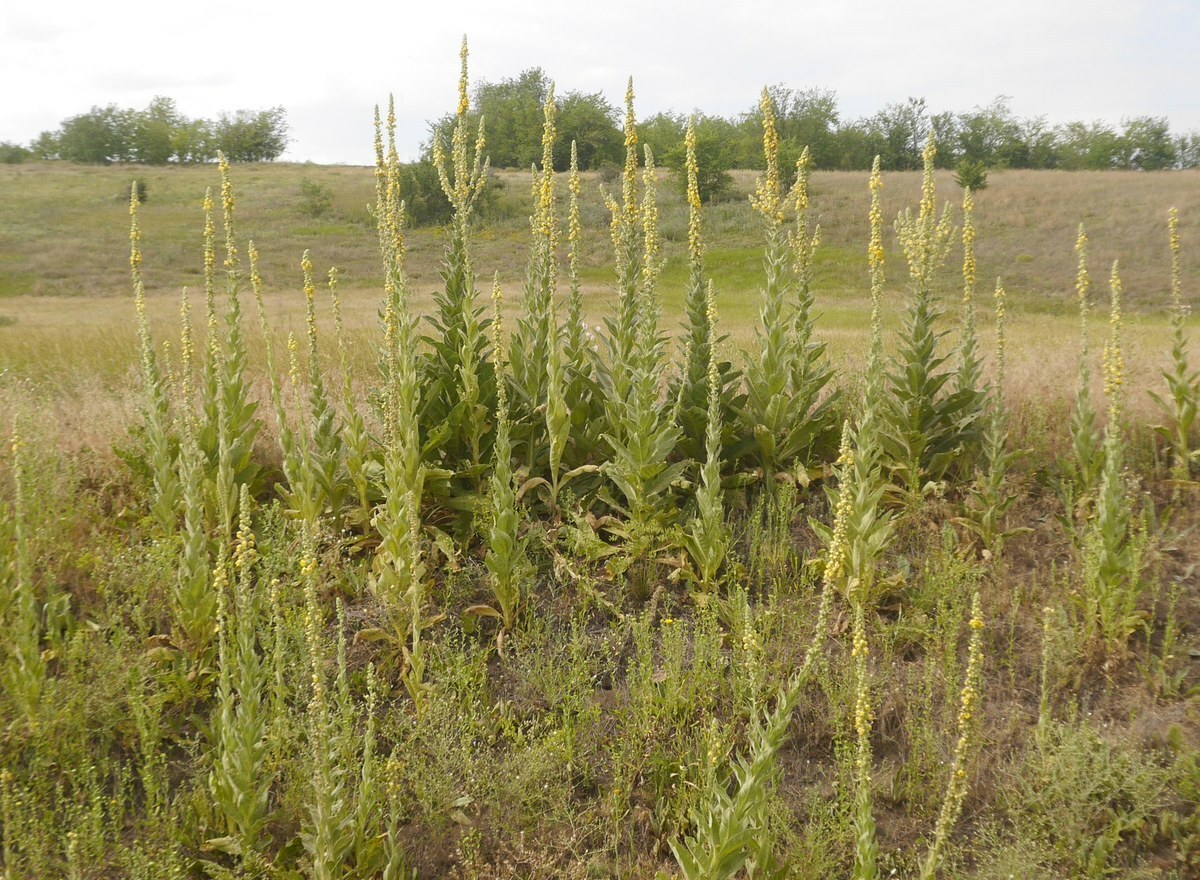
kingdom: Plantae
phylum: Tracheophyta
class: Magnoliopsida
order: Lamiales
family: Scrophulariaceae
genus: Verbascum
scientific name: Verbascum densiflorum
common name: Dense-flowered mullein
